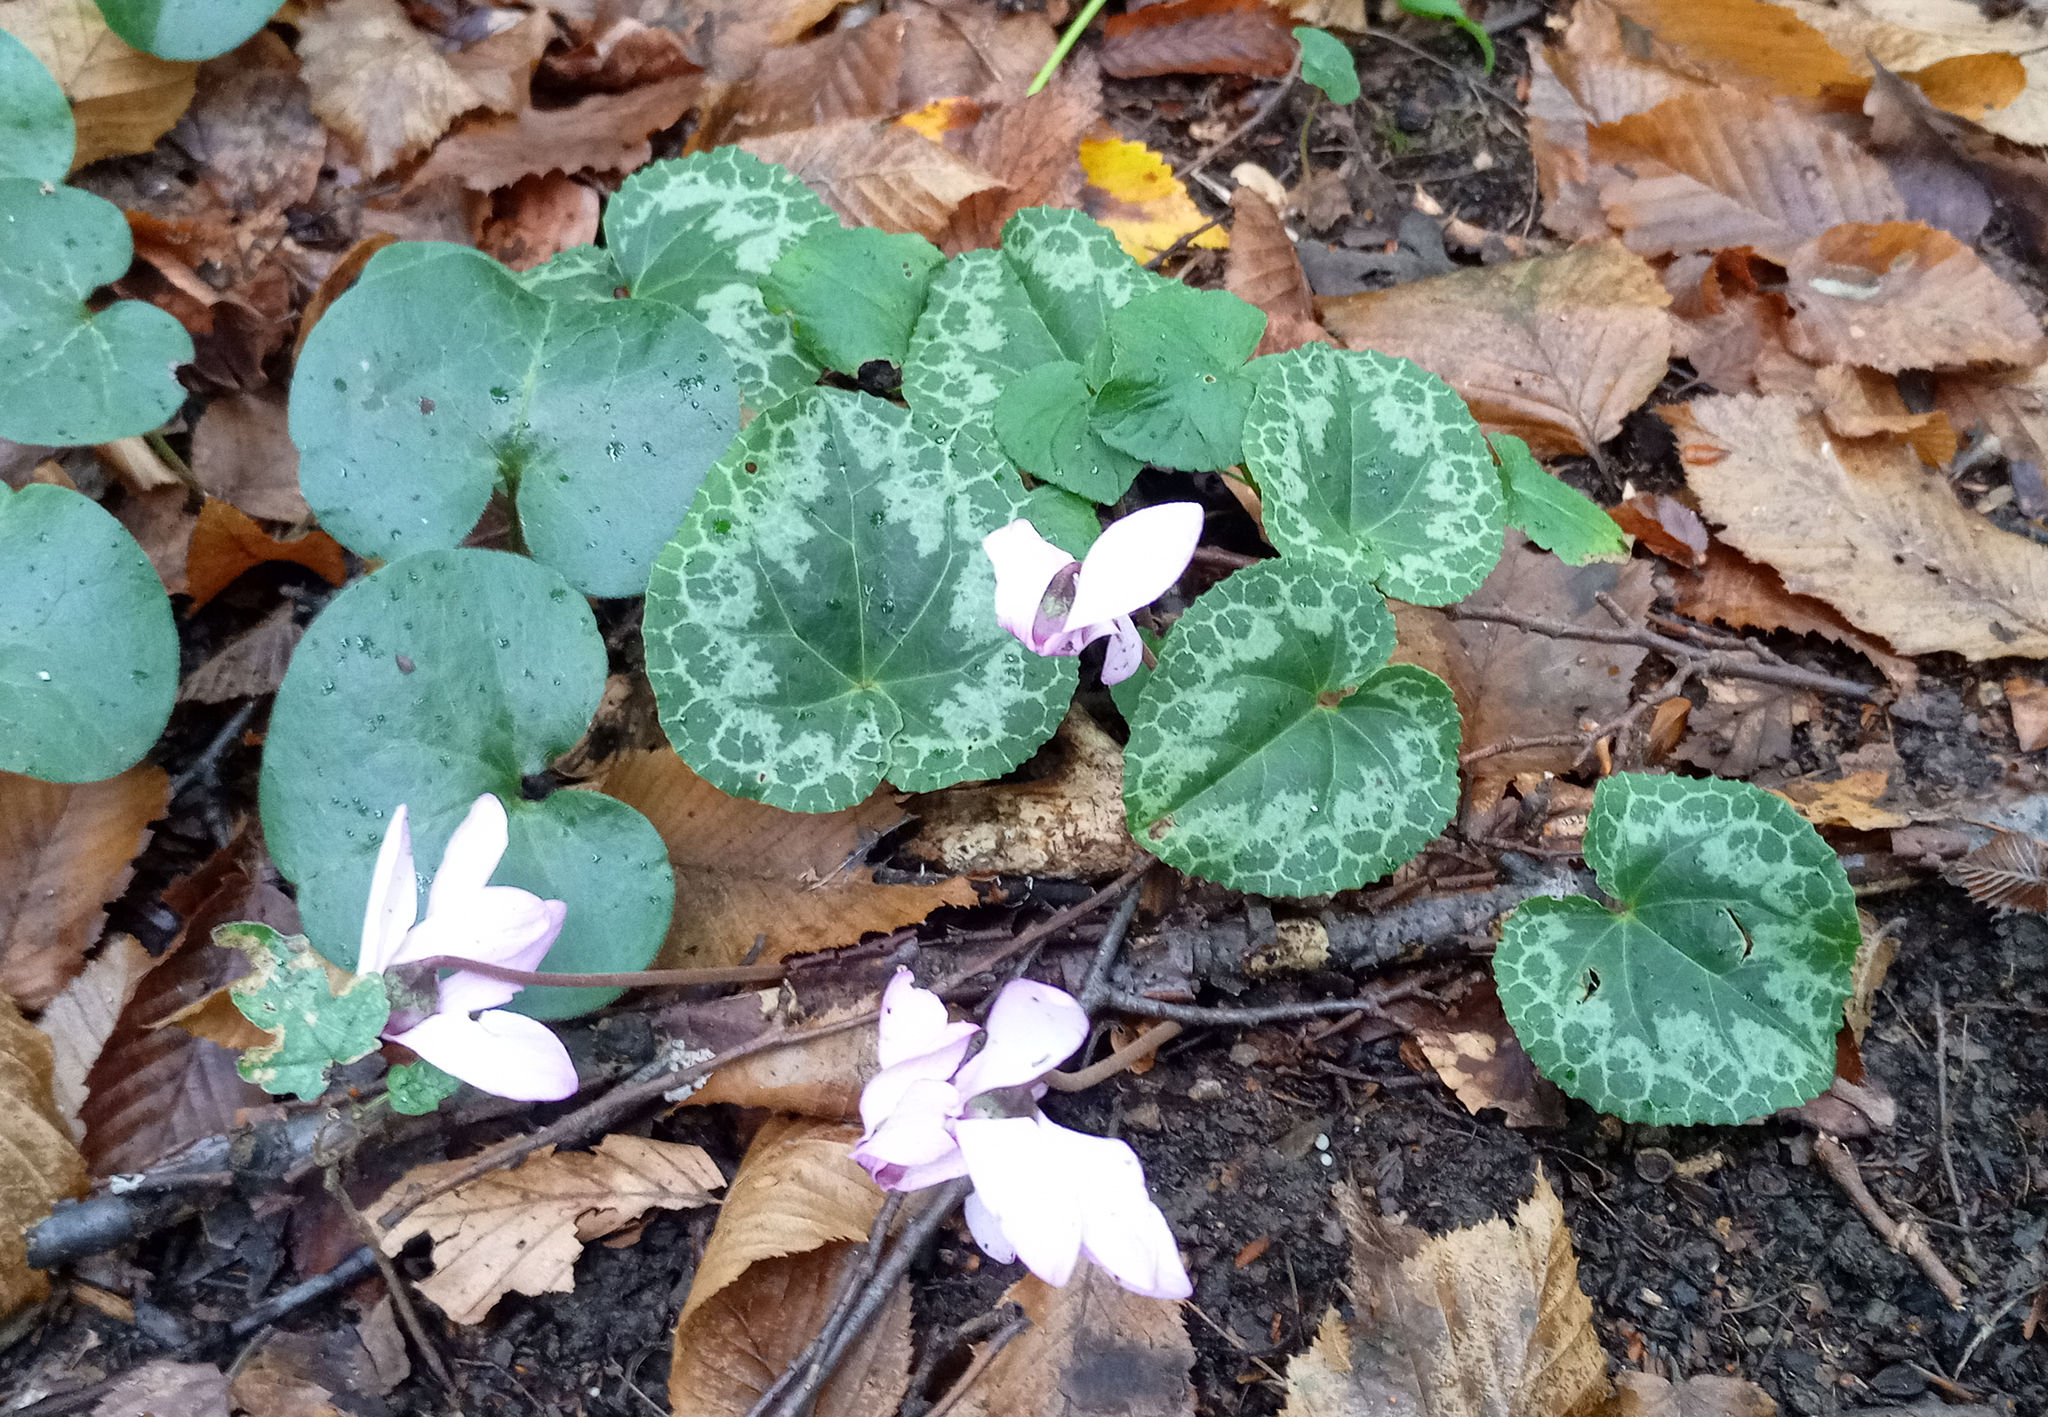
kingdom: Plantae
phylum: Tracheophyta
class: Magnoliopsida
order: Ericales
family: Primulaceae
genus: Cyclamen
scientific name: Cyclamen purpurascens
